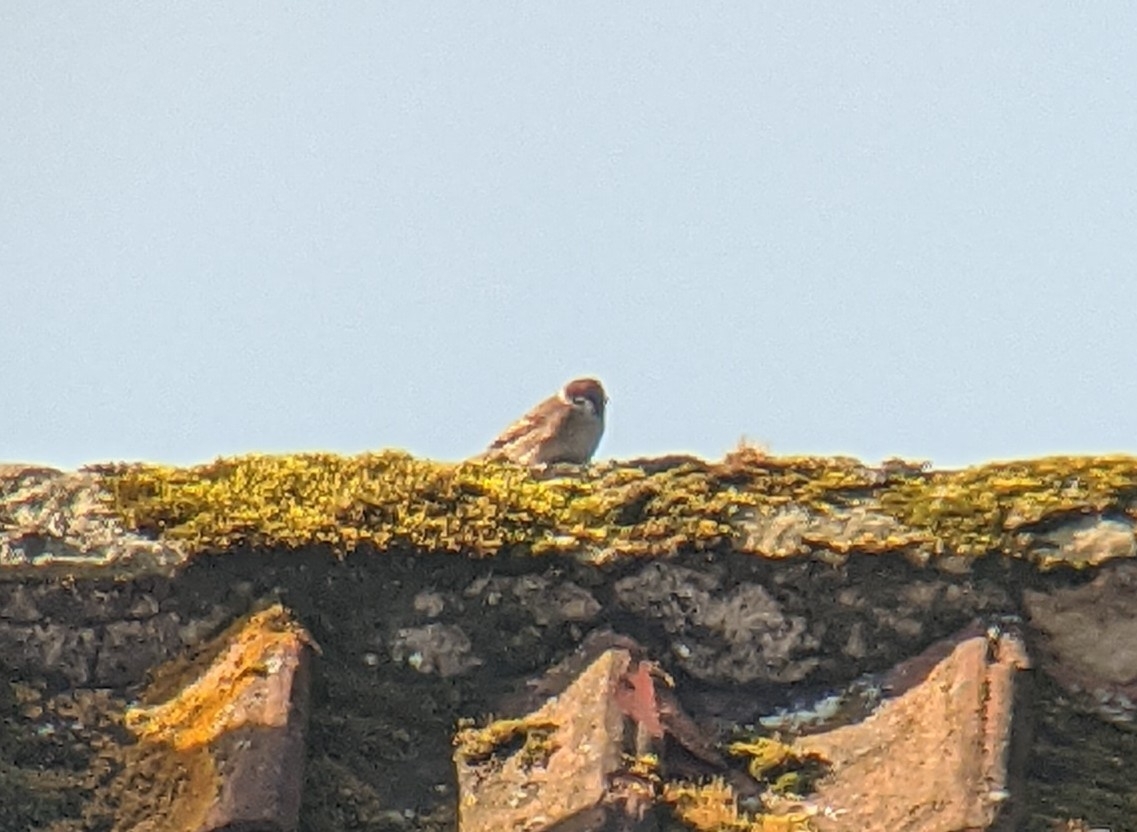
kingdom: Animalia
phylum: Chordata
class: Aves
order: Passeriformes
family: Passeridae
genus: Passer
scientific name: Passer montanus
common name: Eurasian tree sparrow
